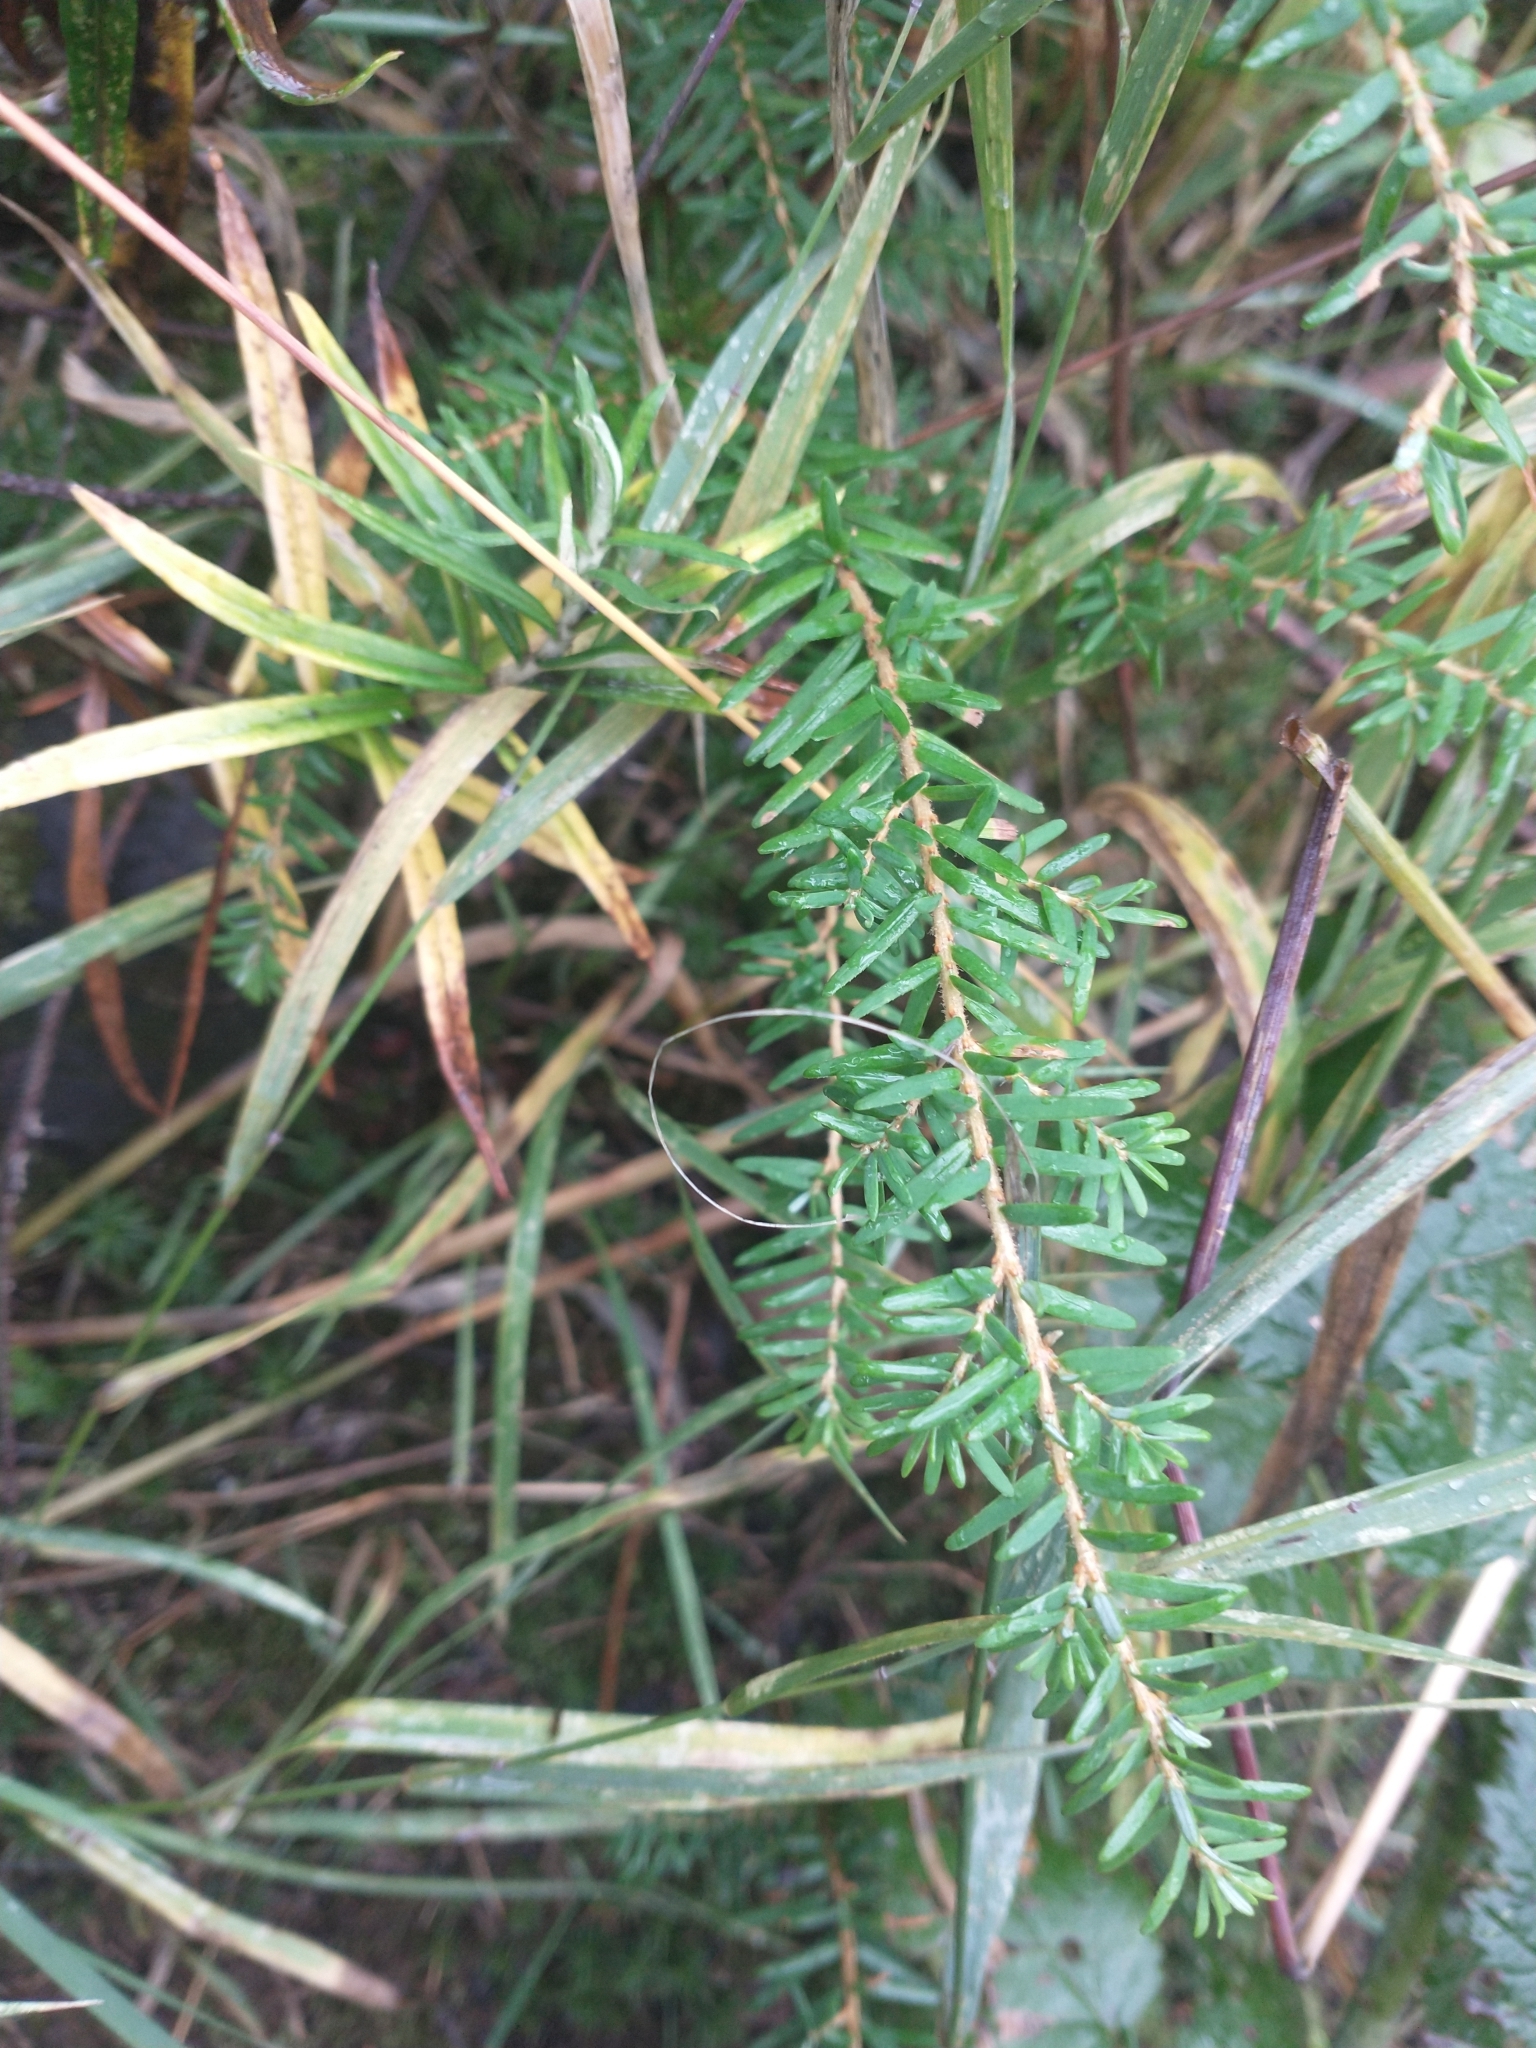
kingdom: Plantae
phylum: Tracheophyta
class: Pinopsida
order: Pinales
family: Pinaceae
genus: Tsuga
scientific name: Tsuga heterophylla
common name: Western hemlock
